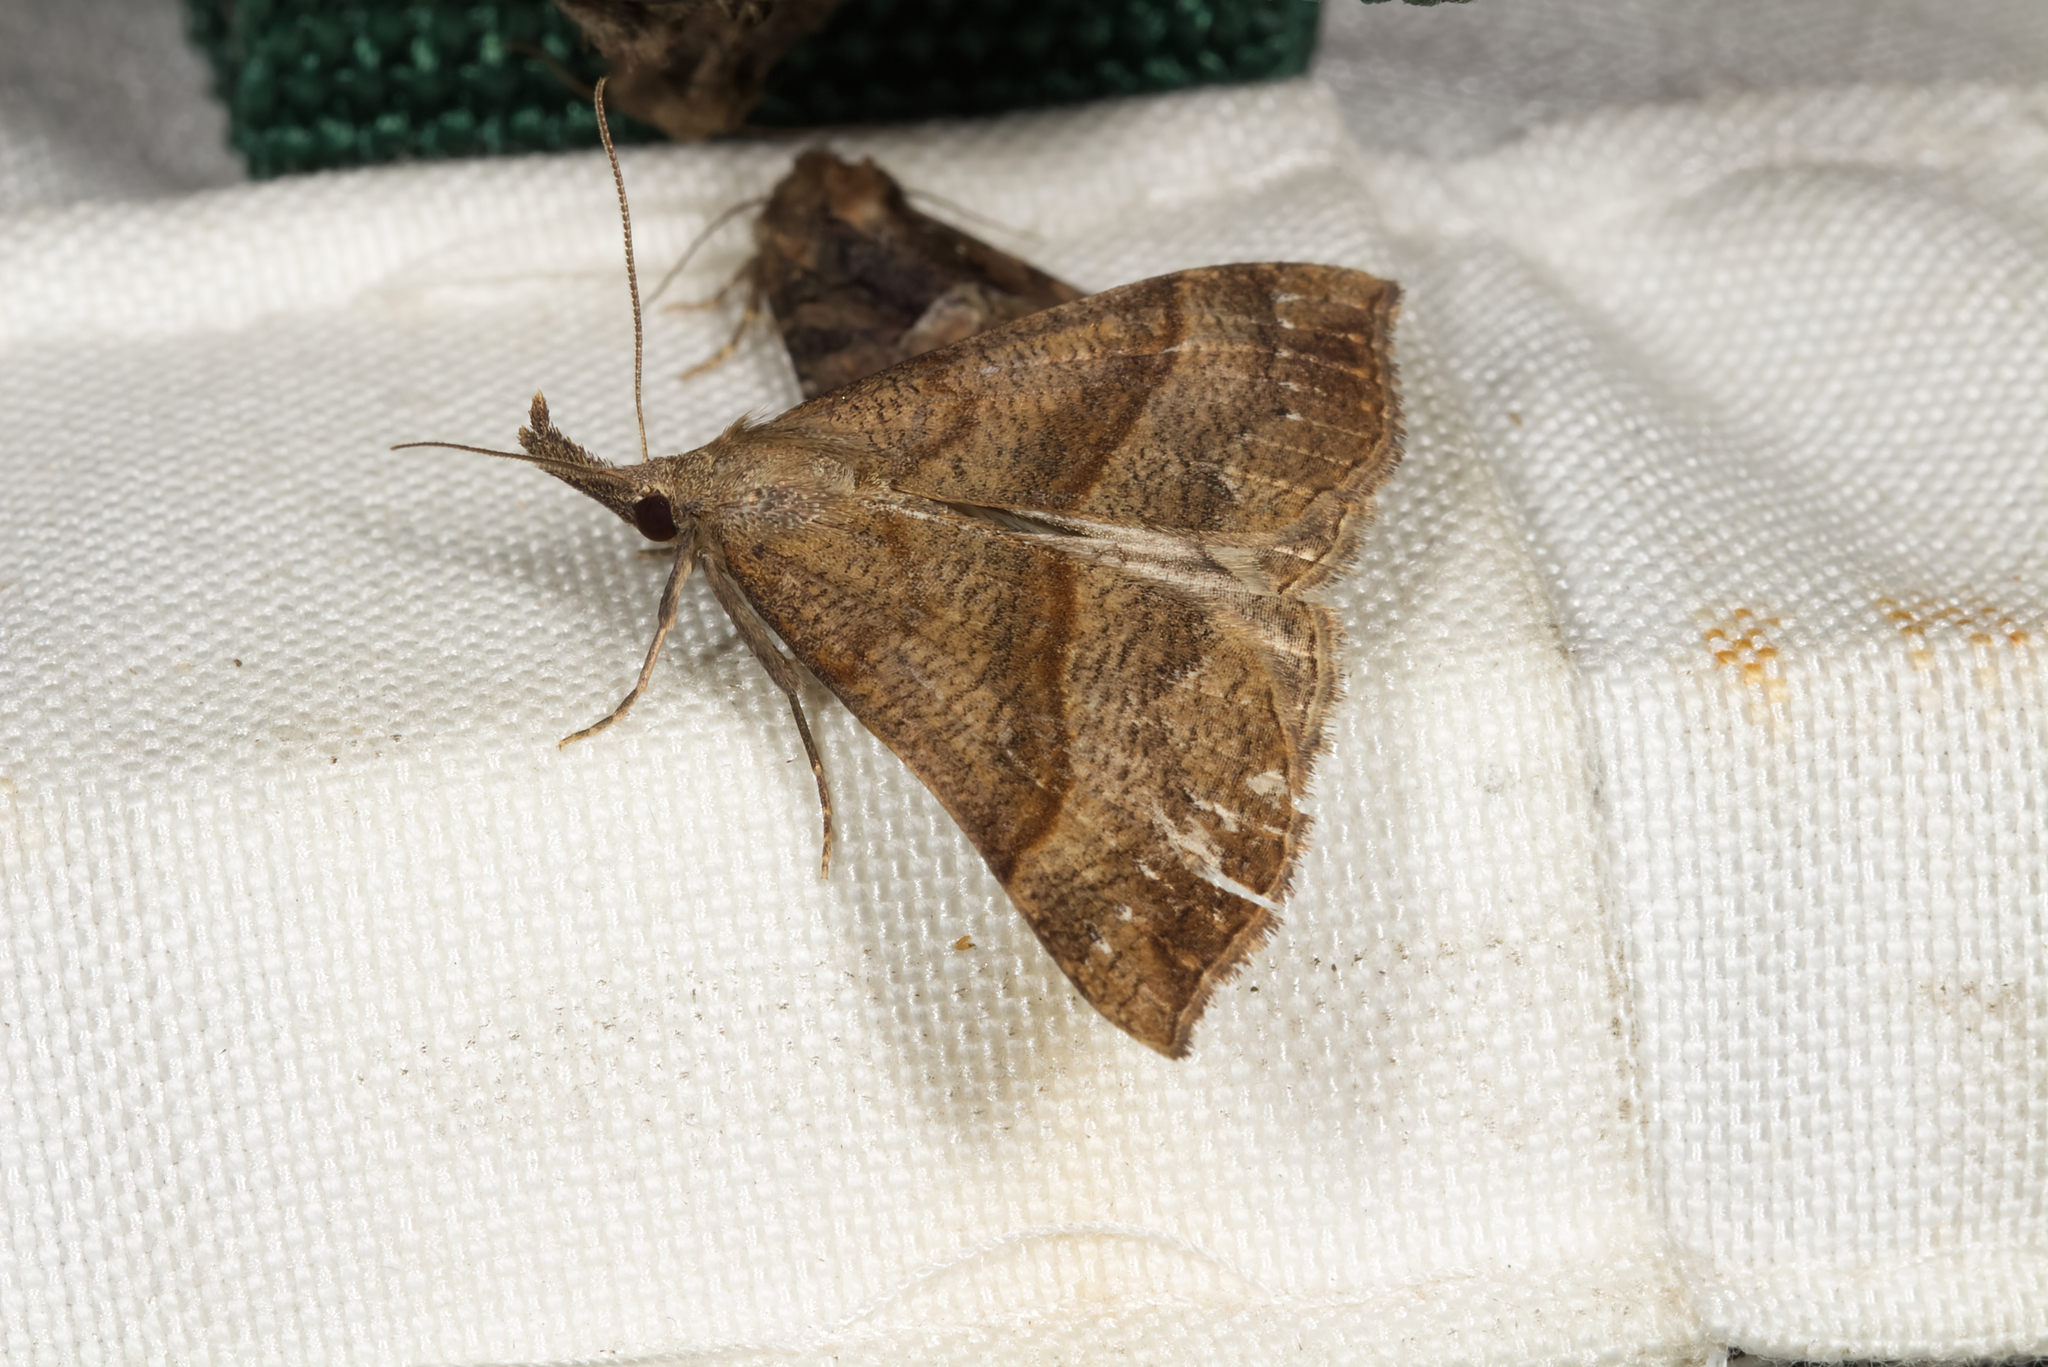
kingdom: Animalia
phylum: Arthropoda
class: Insecta
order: Lepidoptera
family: Erebidae
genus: Hypena
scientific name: Hypena proboscidalis
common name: Snout
